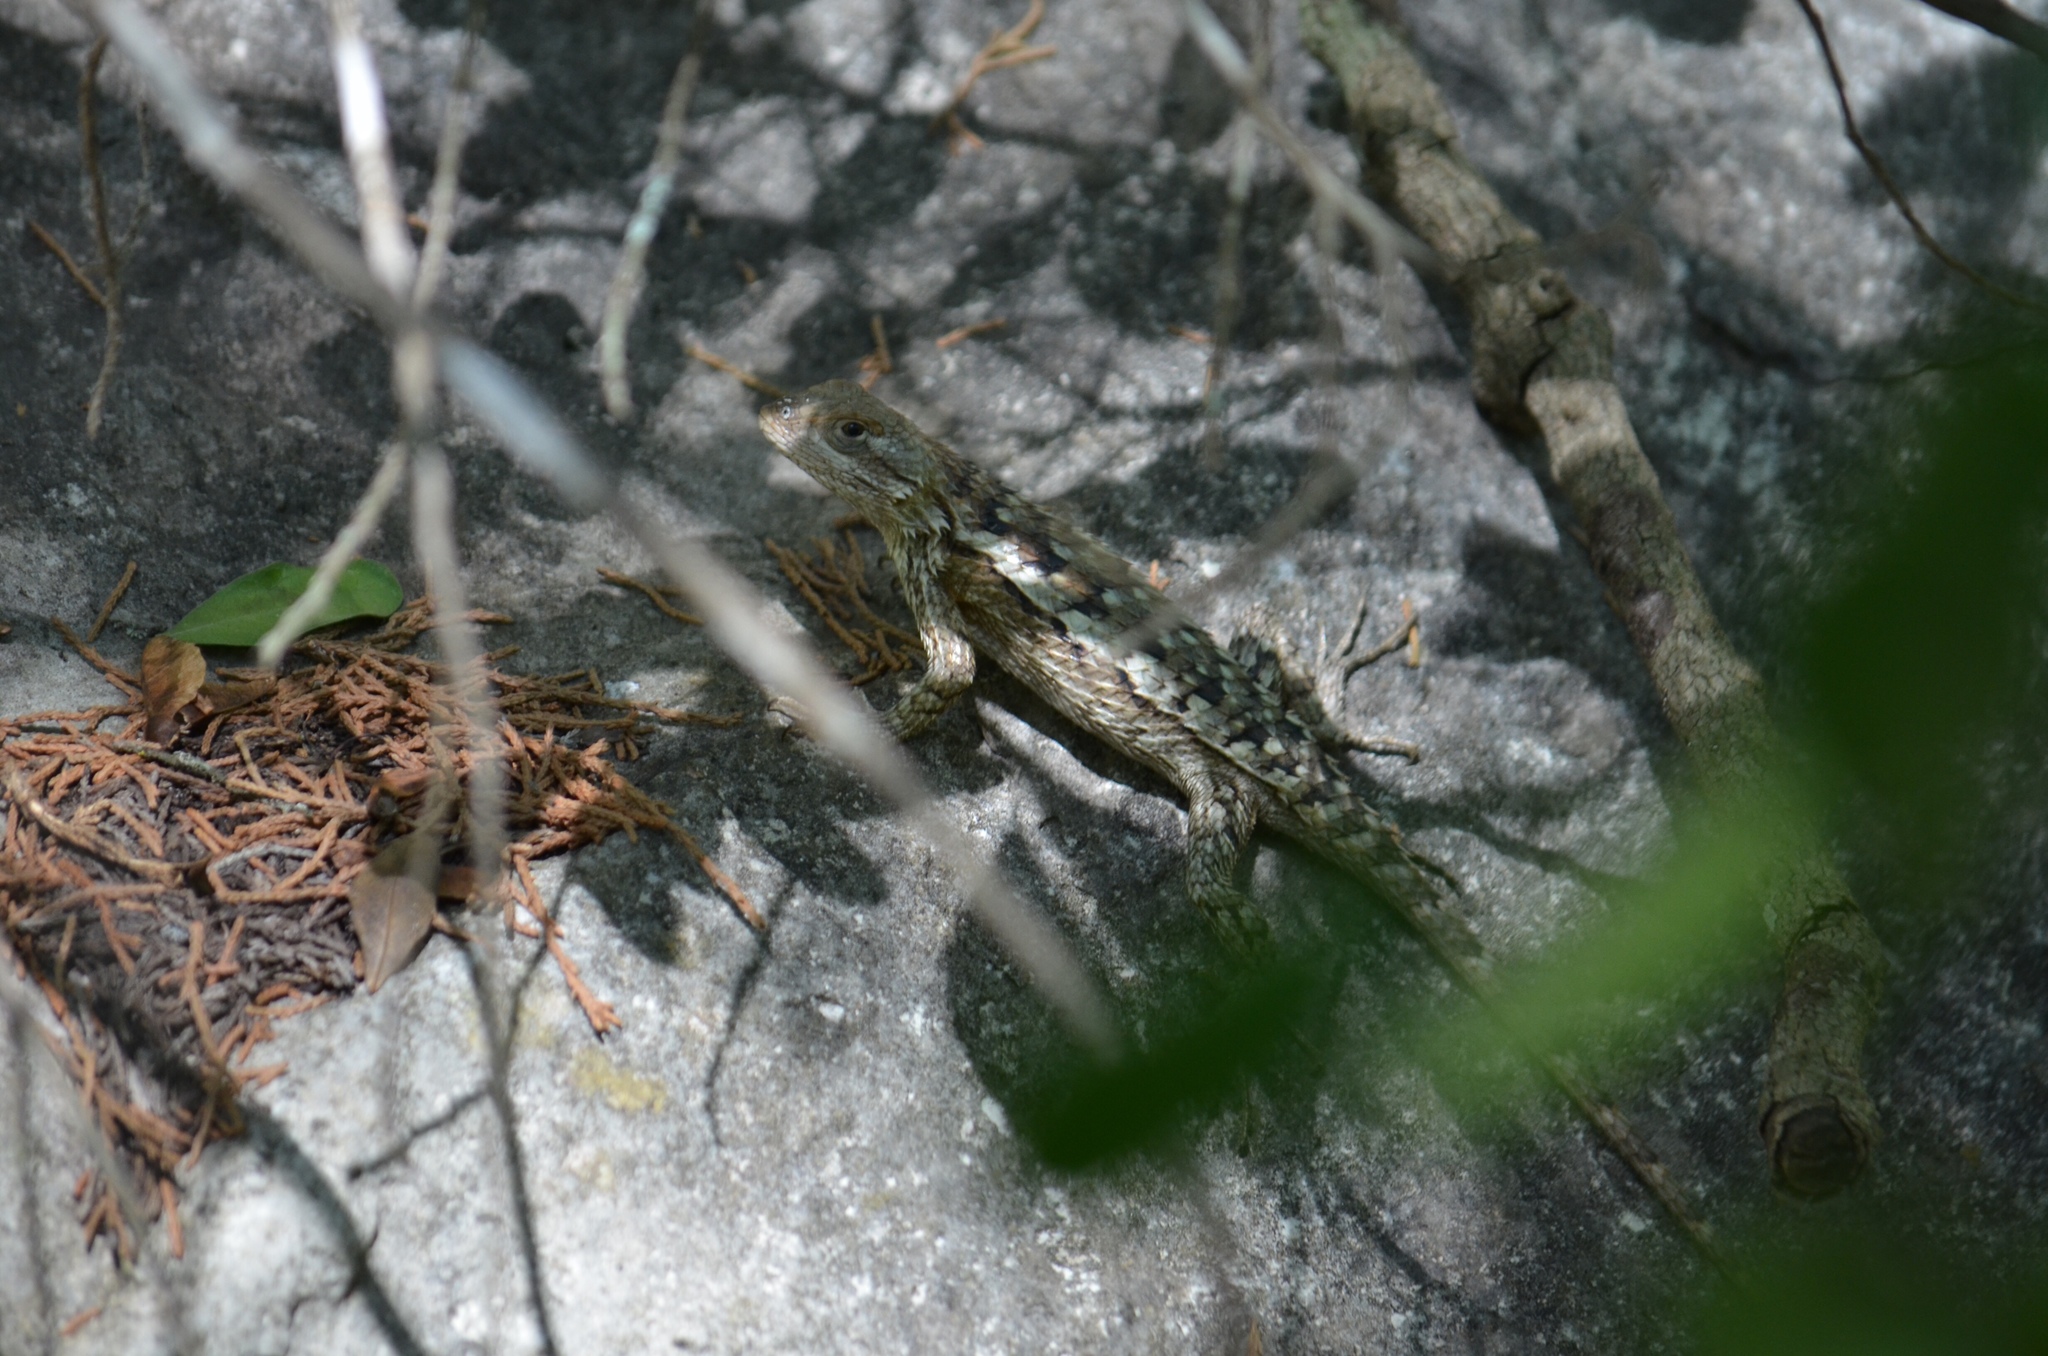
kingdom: Animalia
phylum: Chordata
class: Squamata
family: Phrynosomatidae
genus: Sceloporus
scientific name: Sceloporus olivaceus
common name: Texas spiny lizard
